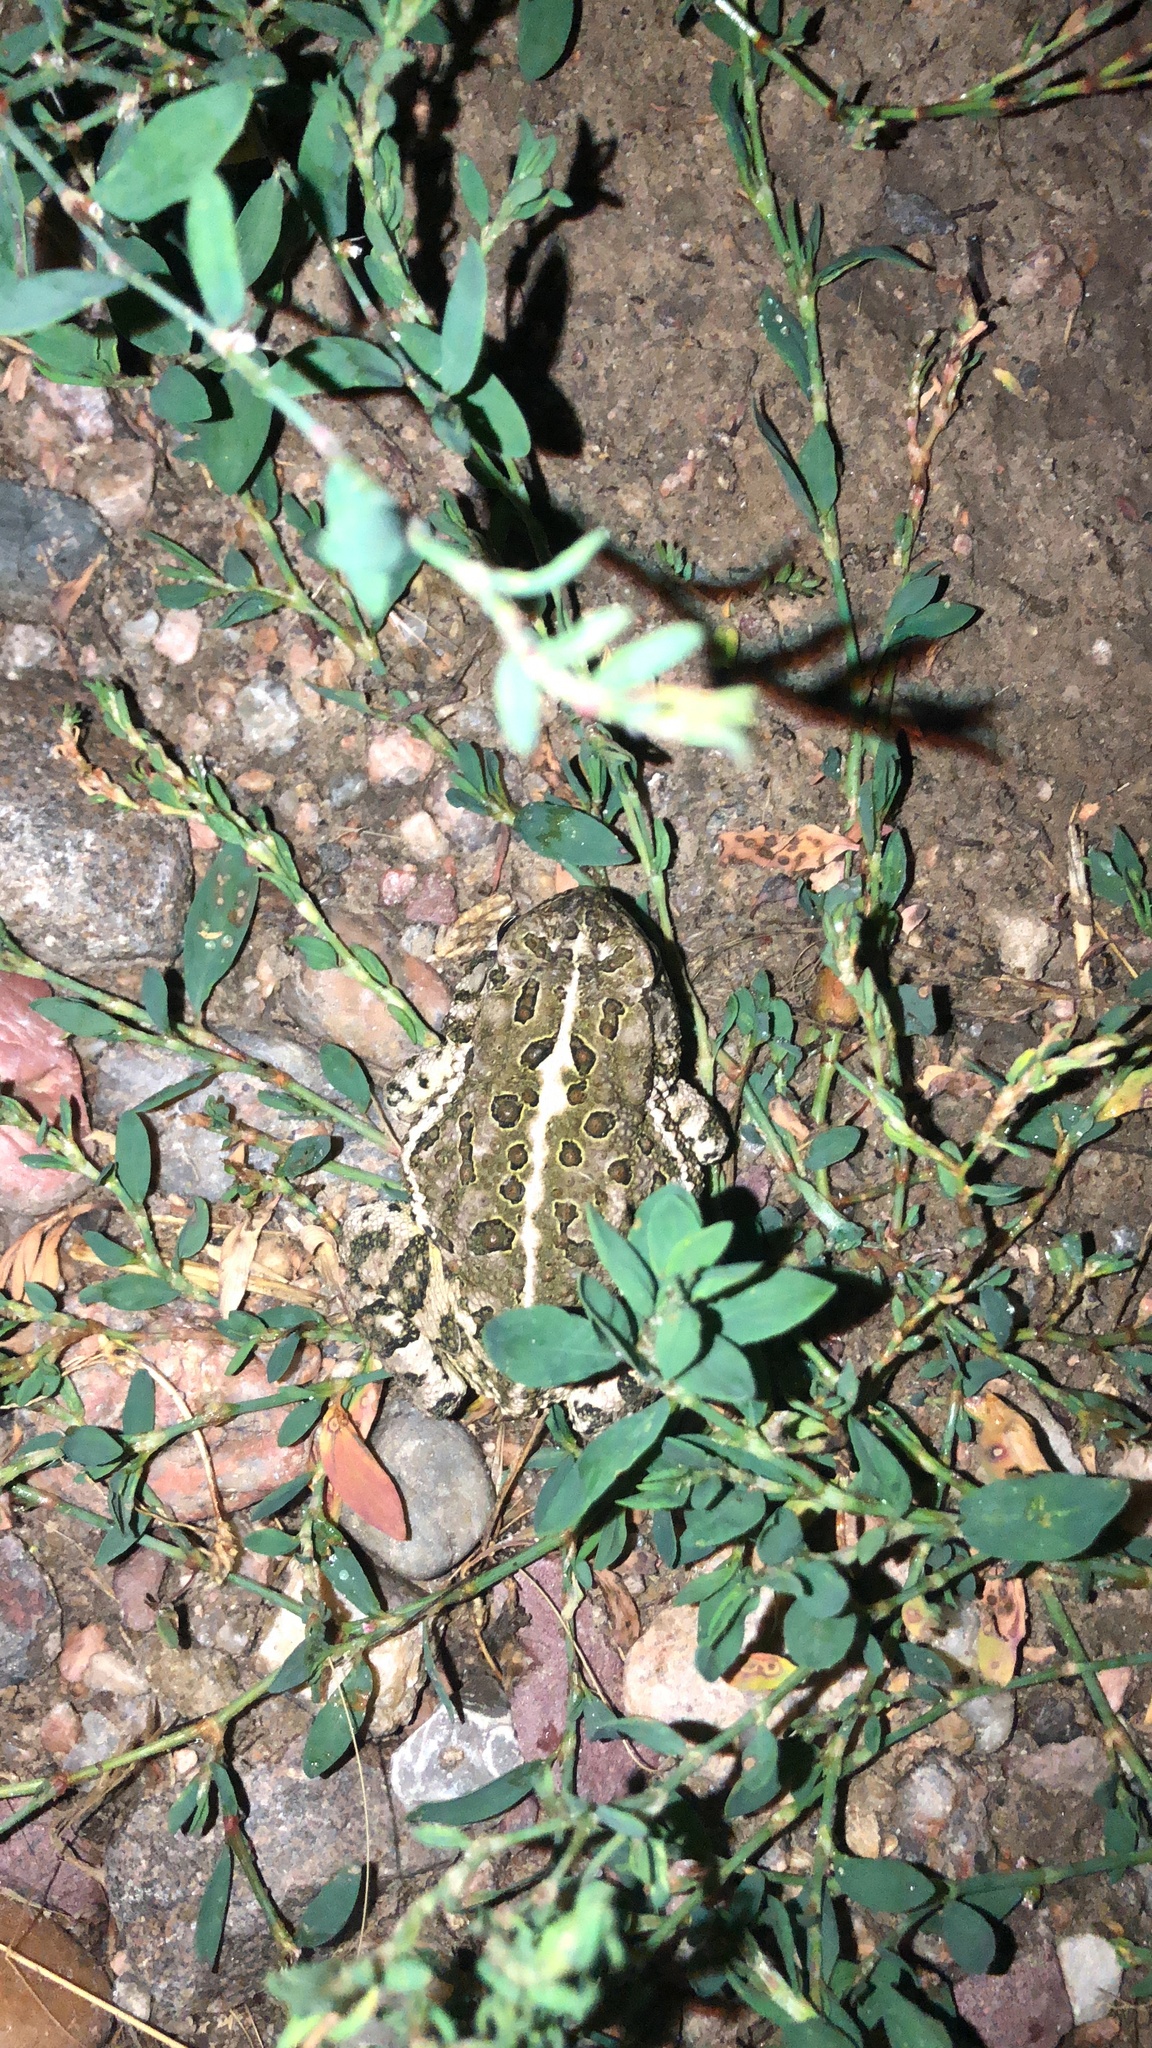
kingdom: Animalia
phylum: Chordata
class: Amphibia
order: Anura
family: Bufonidae
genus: Anaxyrus
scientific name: Anaxyrus woodhousii
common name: Woodhouse's toad
